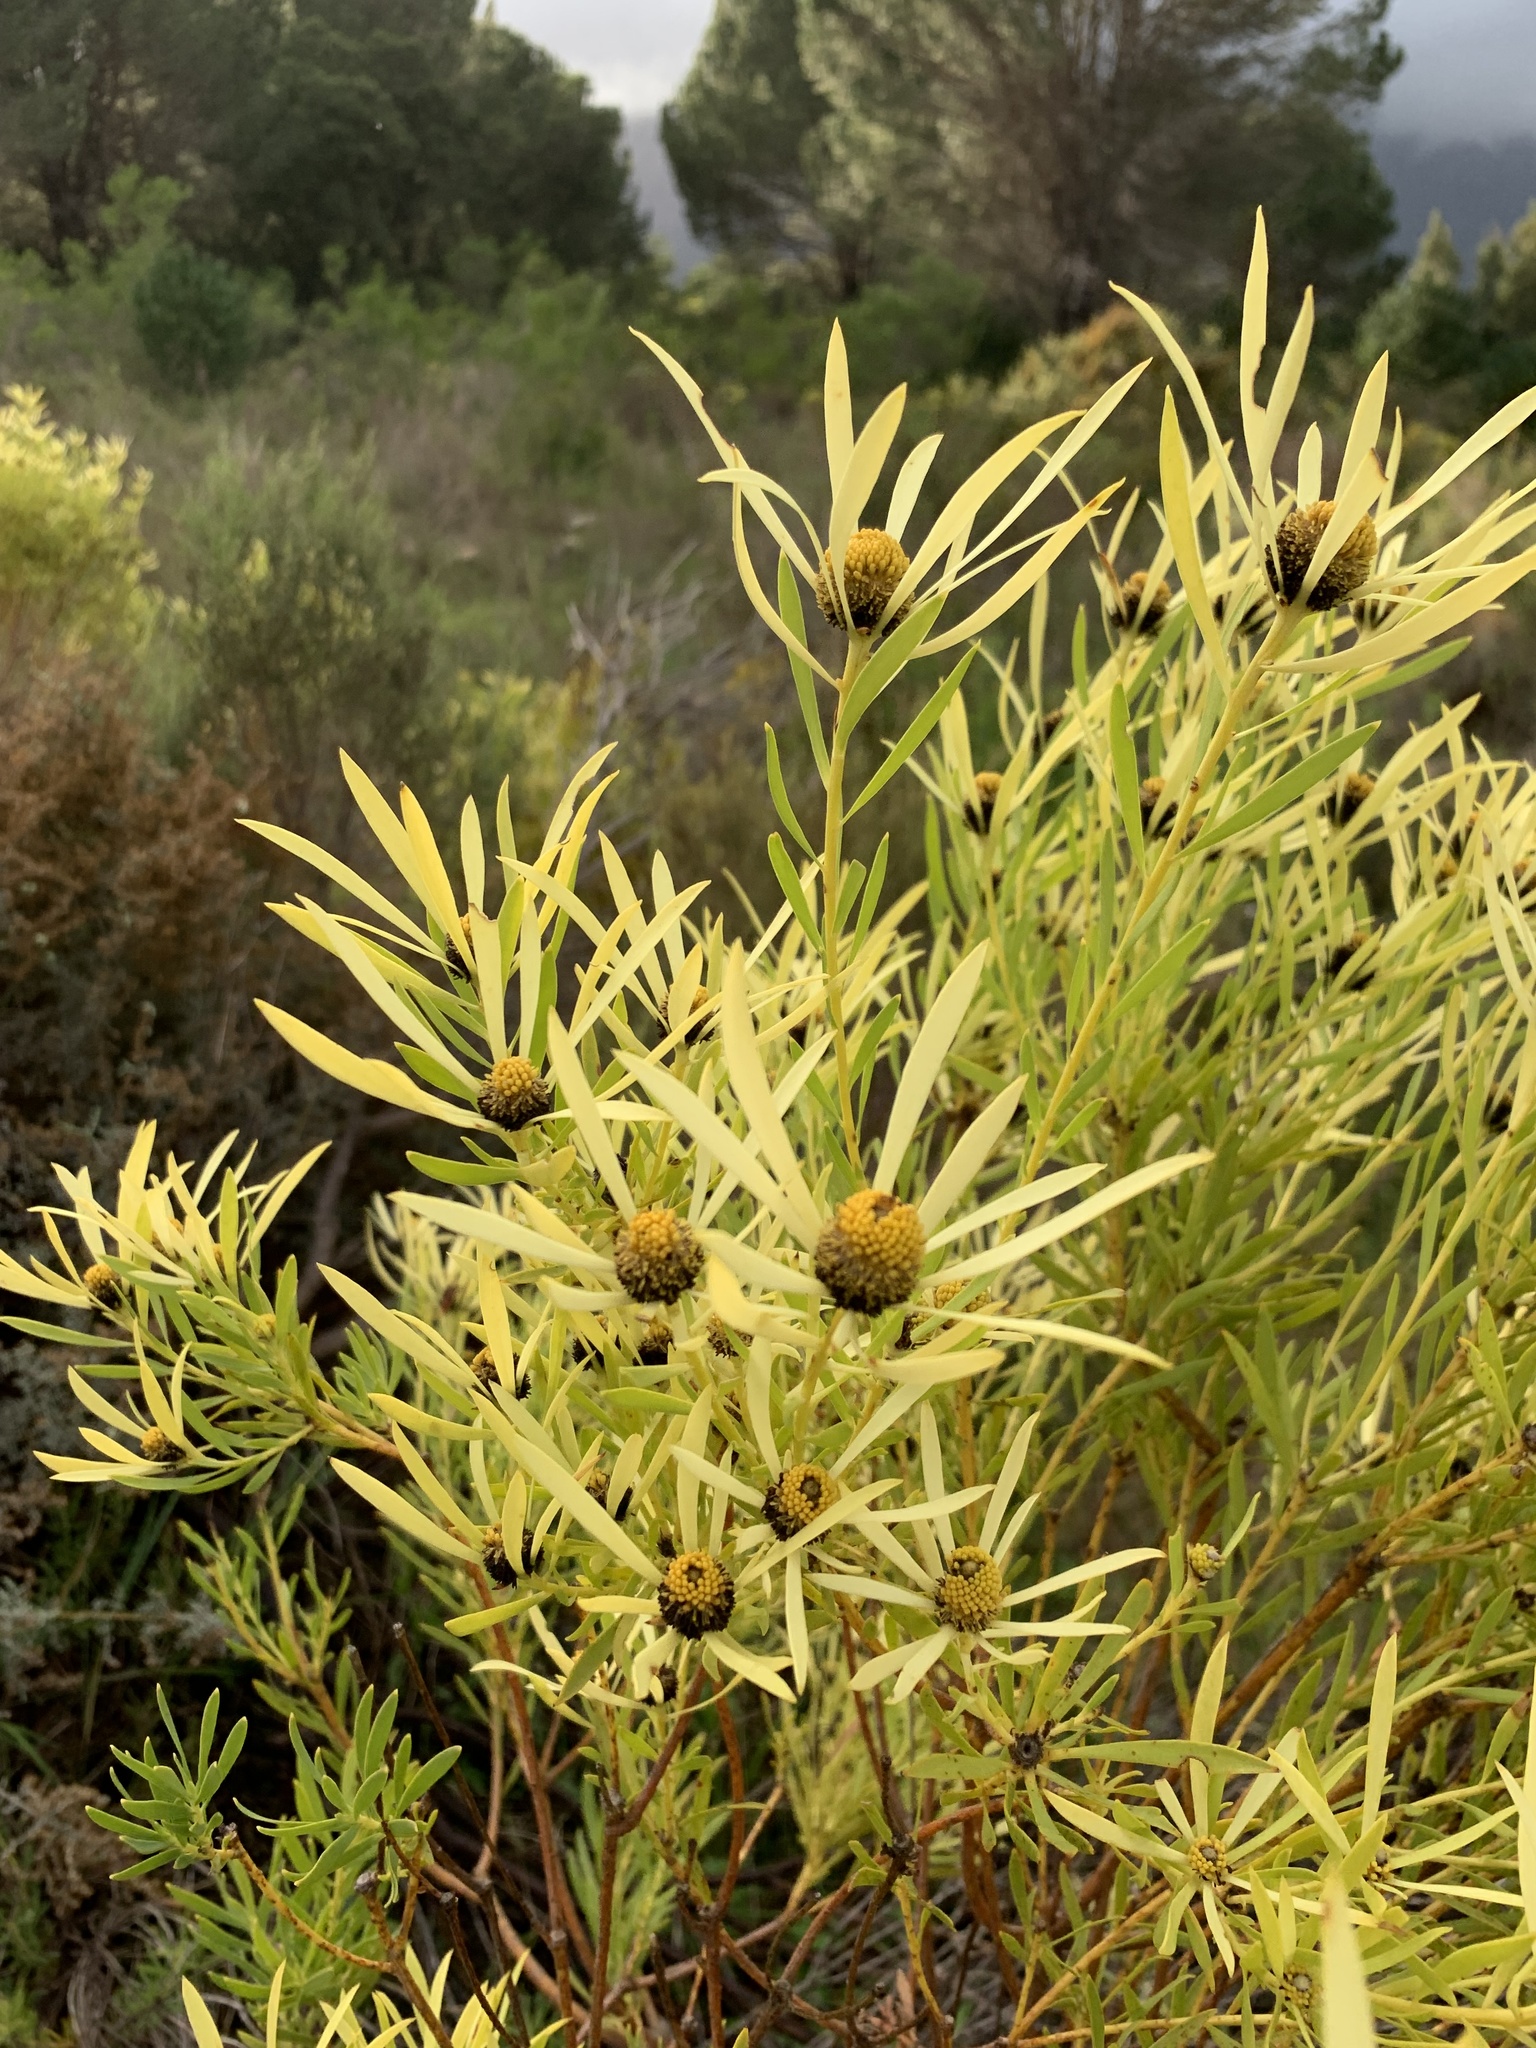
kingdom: Plantae
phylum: Tracheophyta
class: Magnoliopsida
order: Proteales
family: Proteaceae
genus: Leucadendron
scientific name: Leucadendron salignum
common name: Common sunshine conebush
